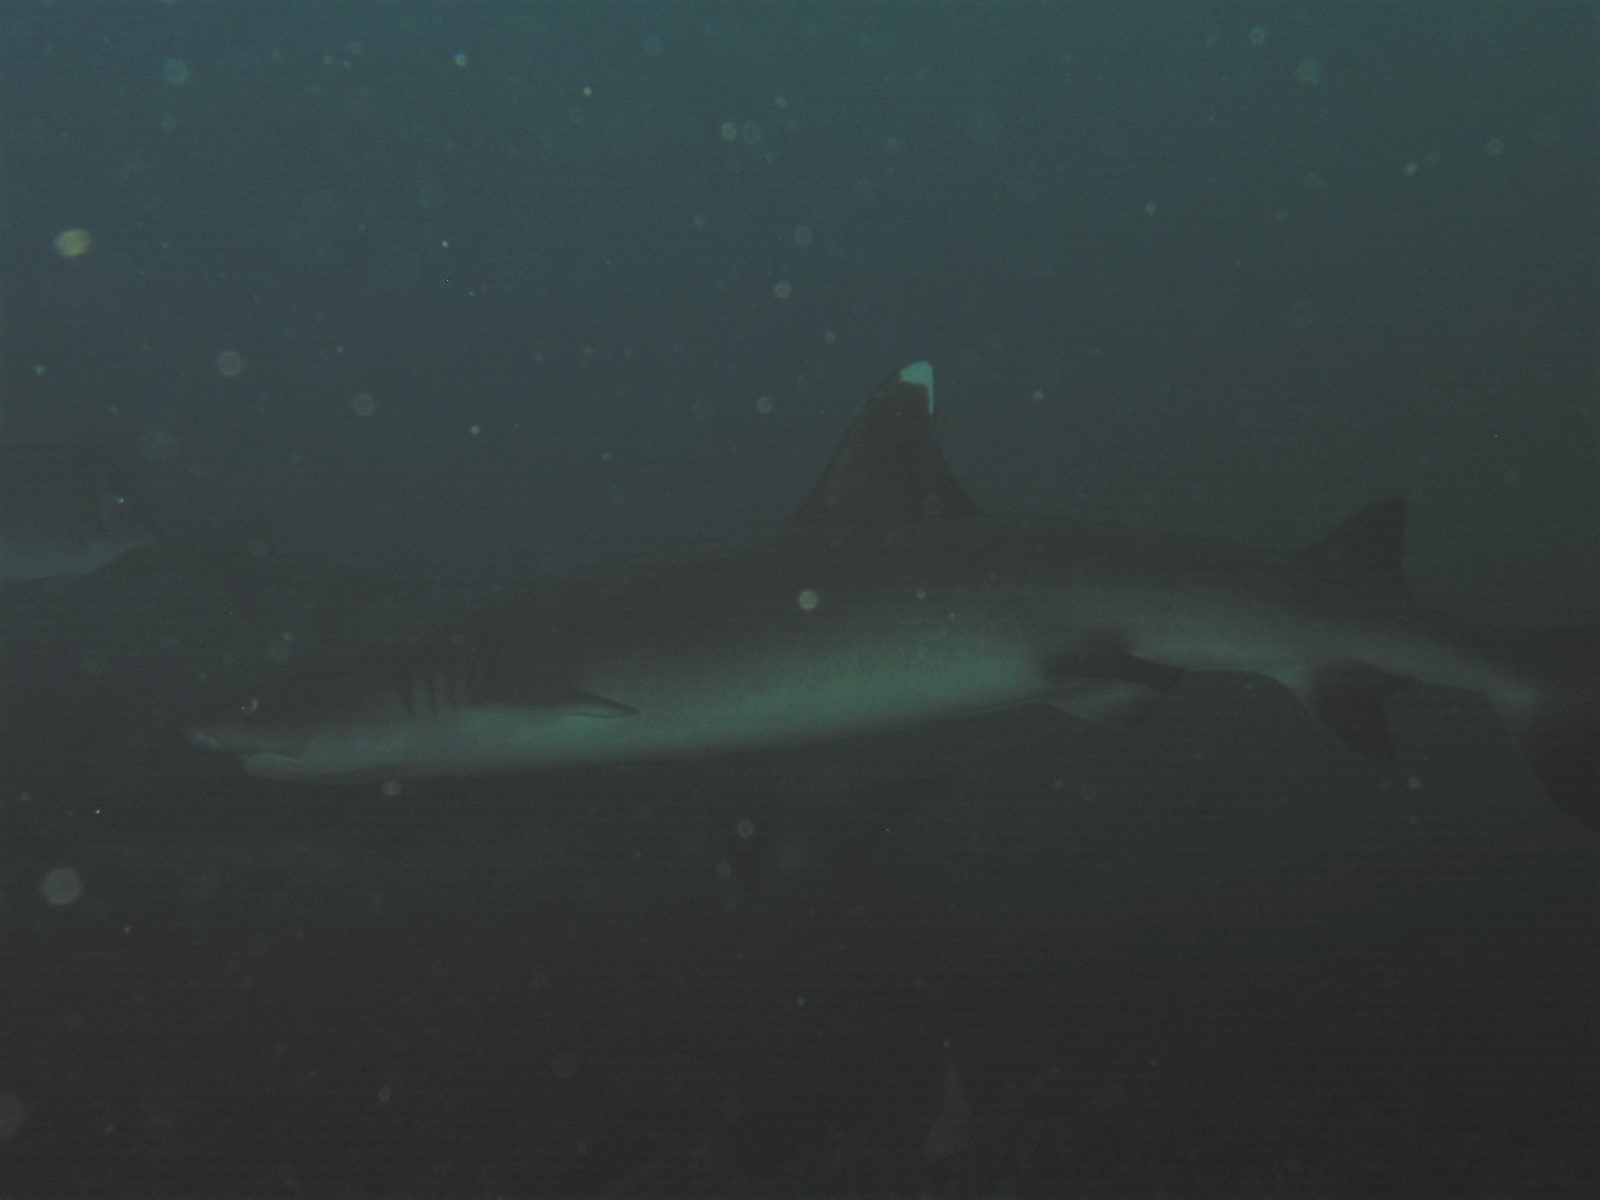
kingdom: Animalia
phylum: Chordata
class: Elasmobranchii
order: Carcharhiniformes
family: Carcharhinidae
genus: Triaenodon
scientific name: Triaenodon obesus
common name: Whitetip reef shark
